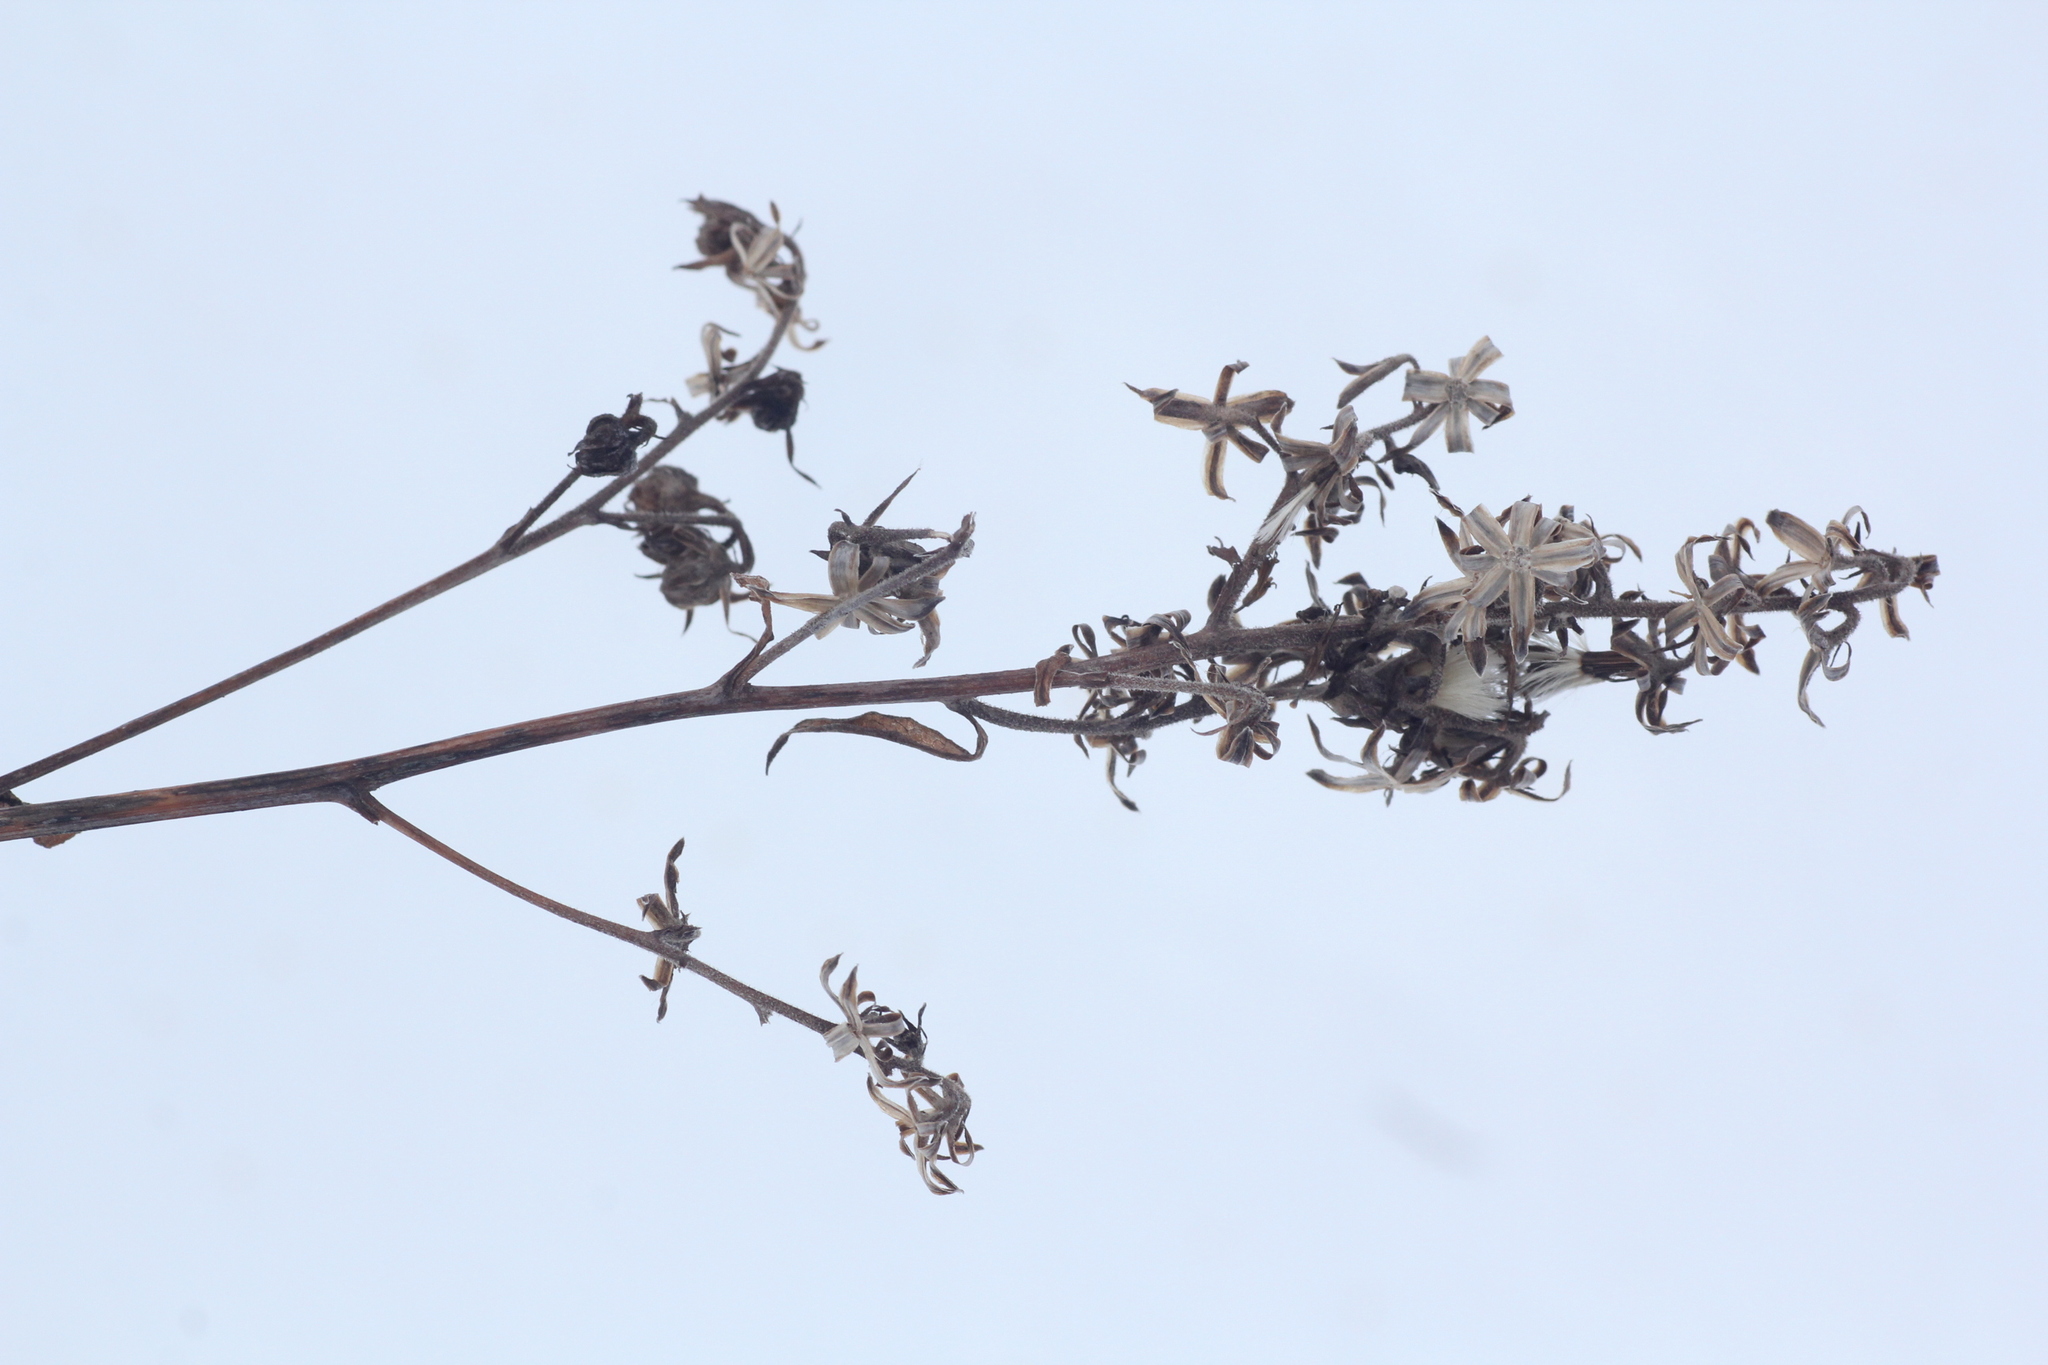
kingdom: Plantae
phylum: Tracheophyta
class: Magnoliopsida
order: Asterales
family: Asteraceae
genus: Parasenecio
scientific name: Parasenecio hastatus
